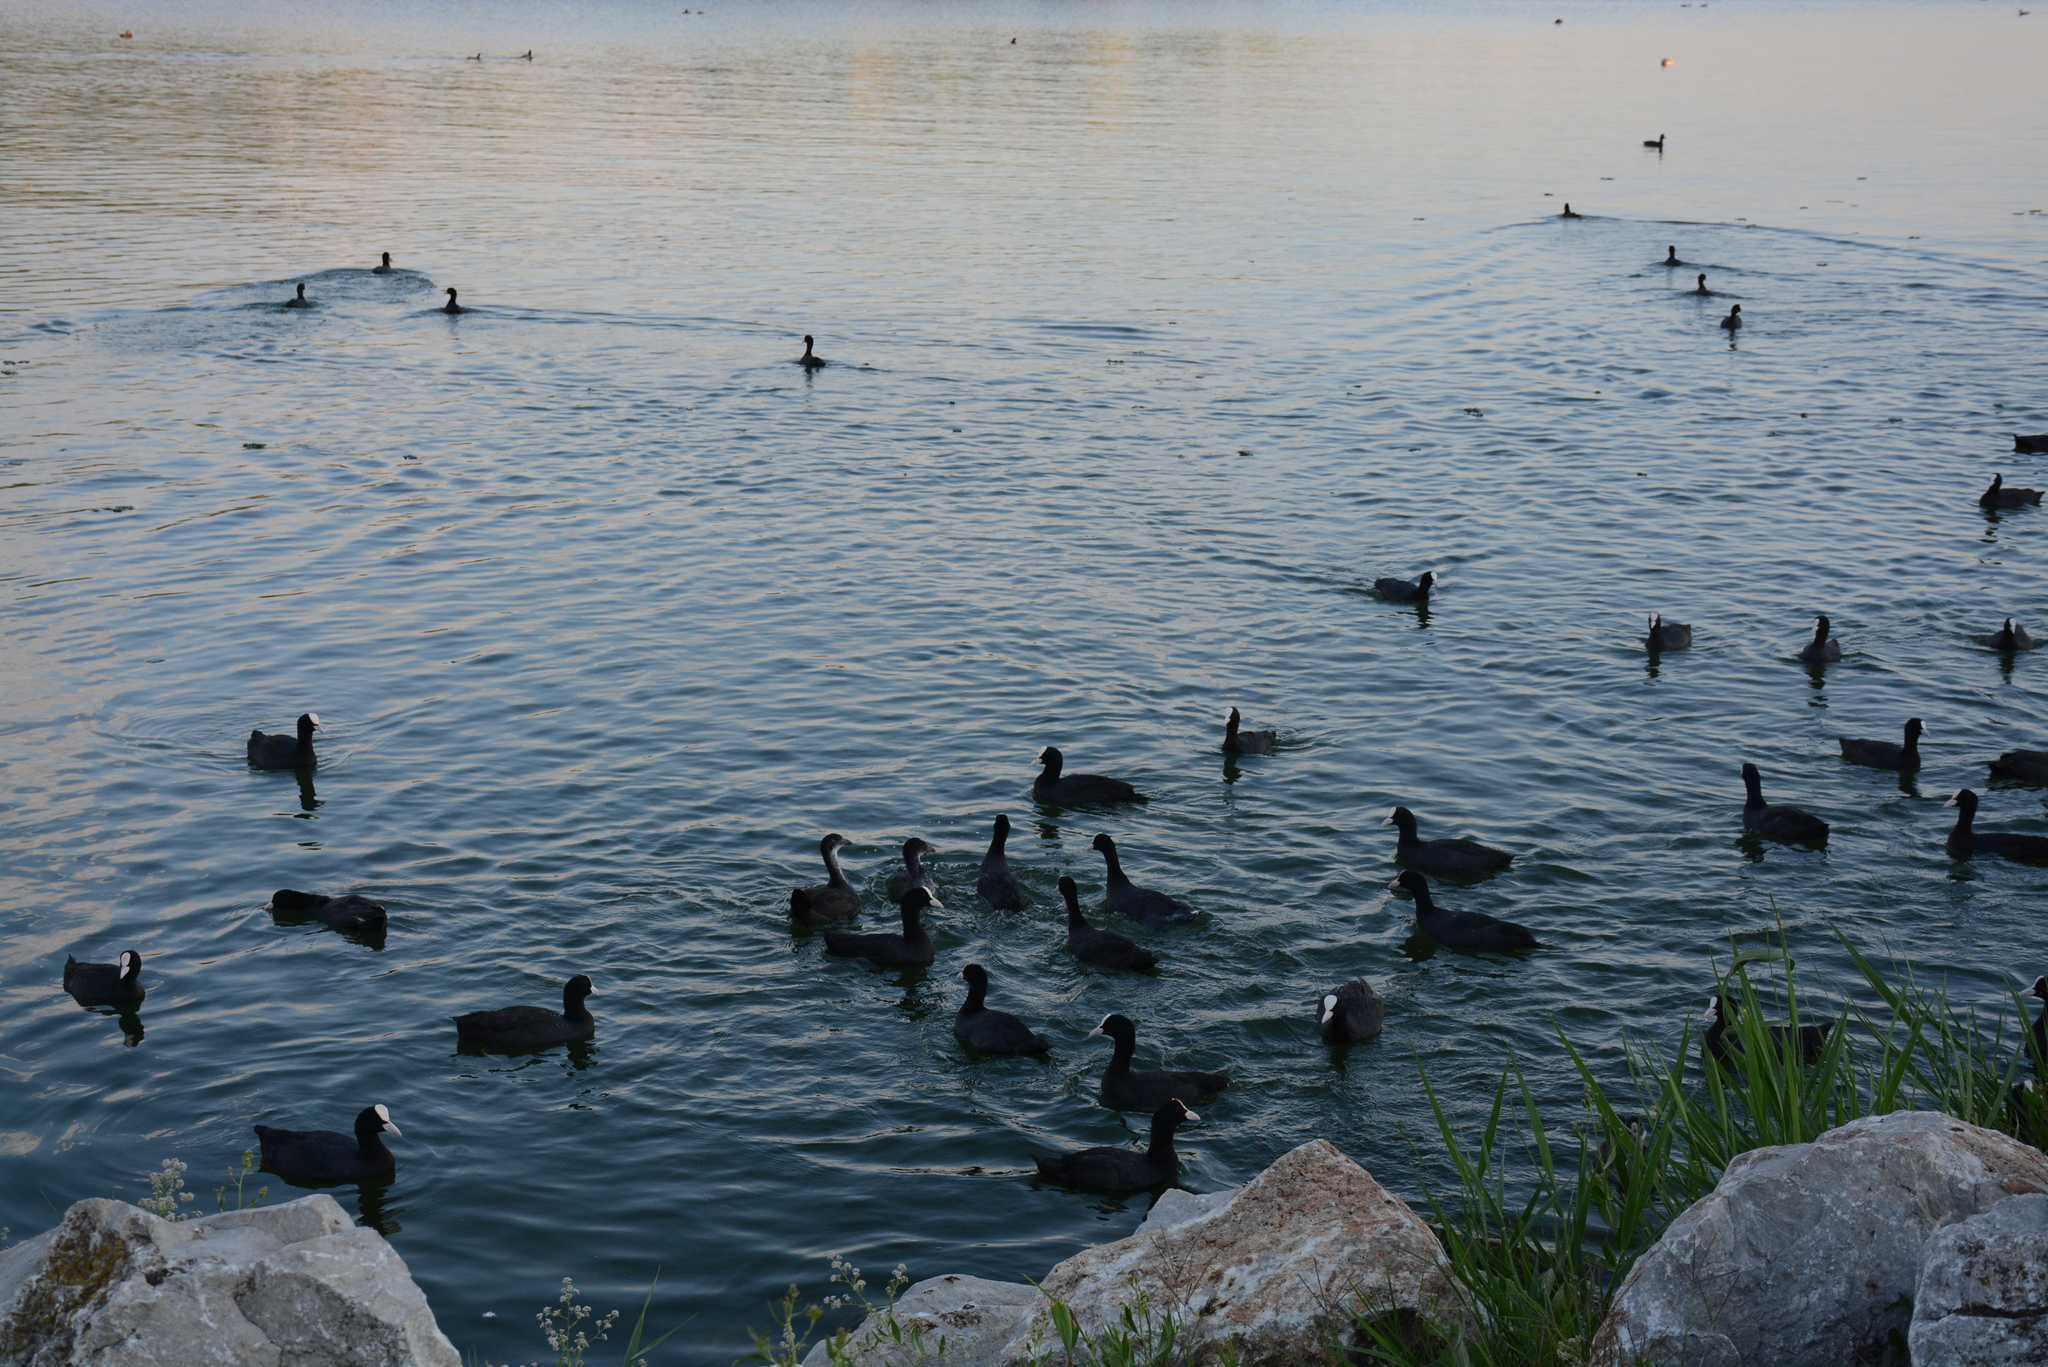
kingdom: Animalia
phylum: Chordata
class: Aves
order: Gruiformes
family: Rallidae
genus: Fulica
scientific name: Fulica atra
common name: Eurasian coot
